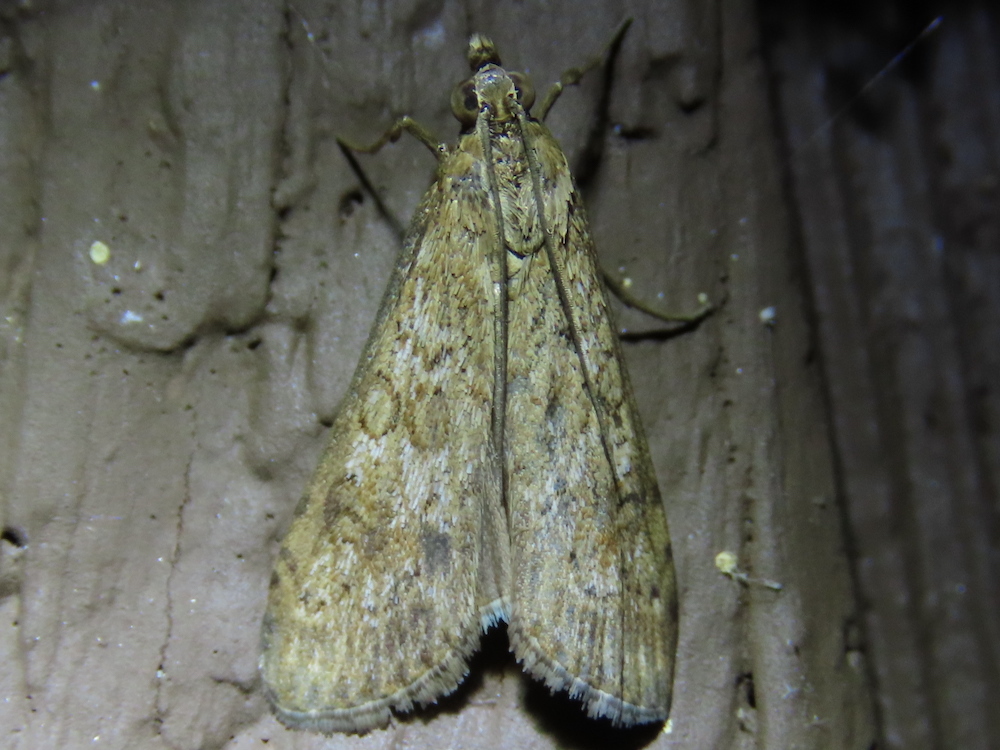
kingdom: Animalia
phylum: Arthropoda
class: Insecta
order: Lepidoptera
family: Crambidae
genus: Nomophila
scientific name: Nomophila nearctica
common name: American rush veneer
